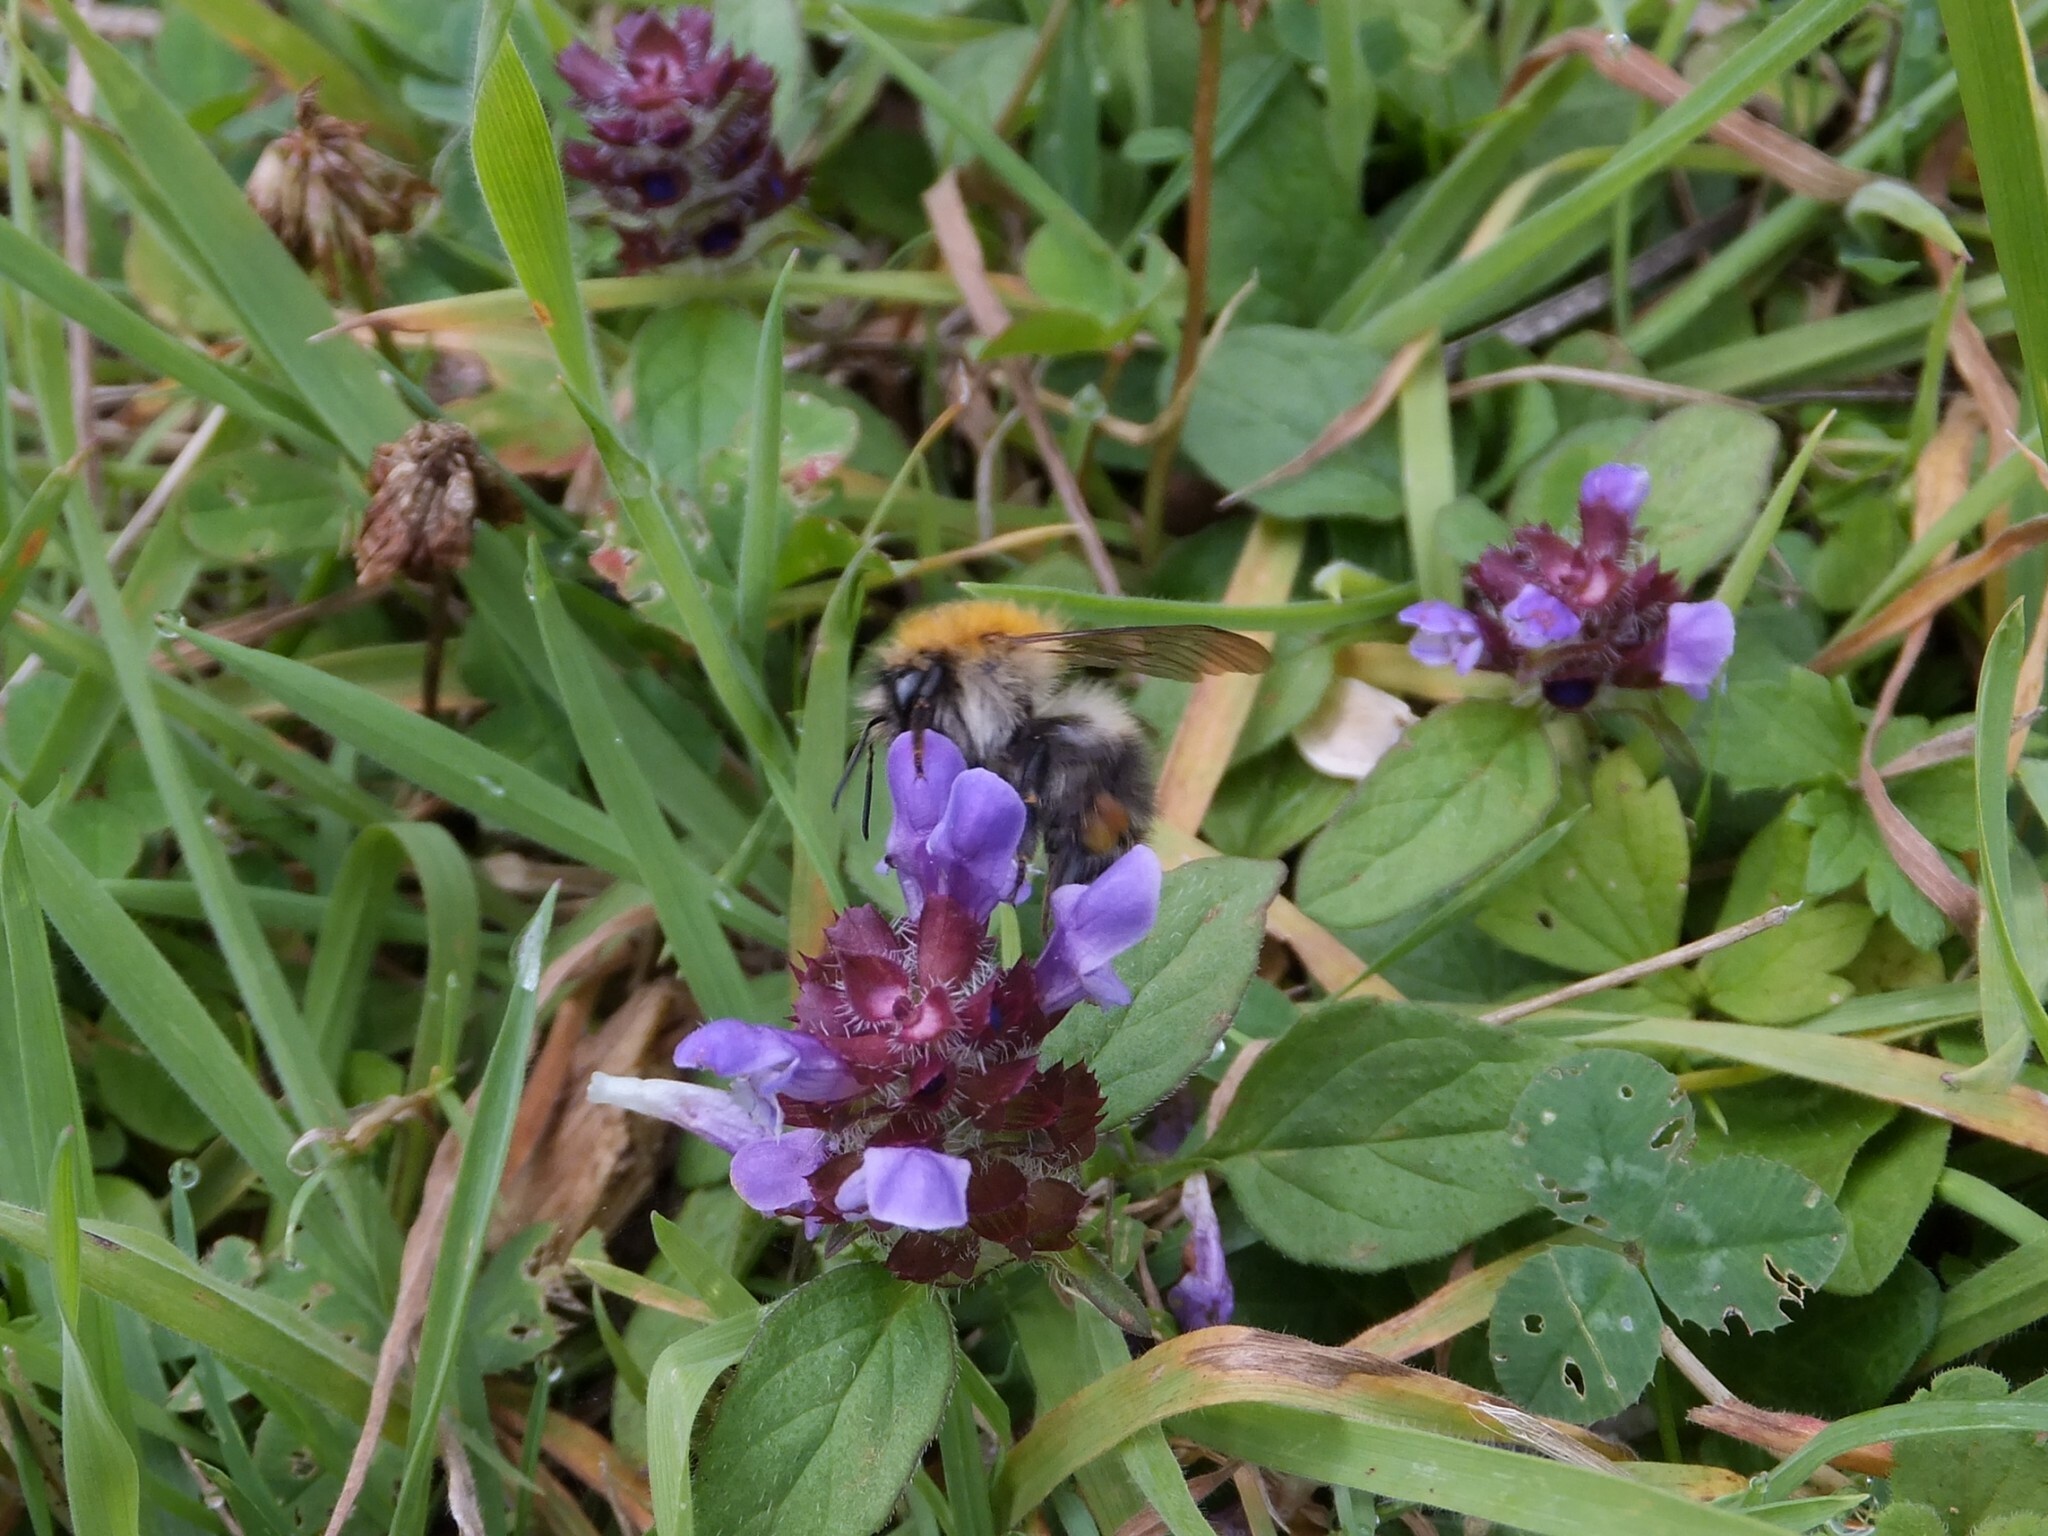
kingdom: Animalia
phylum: Arthropoda
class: Insecta
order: Hymenoptera
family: Apidae
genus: Bombus
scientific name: Bombus pascuorum
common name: Common carder bee
